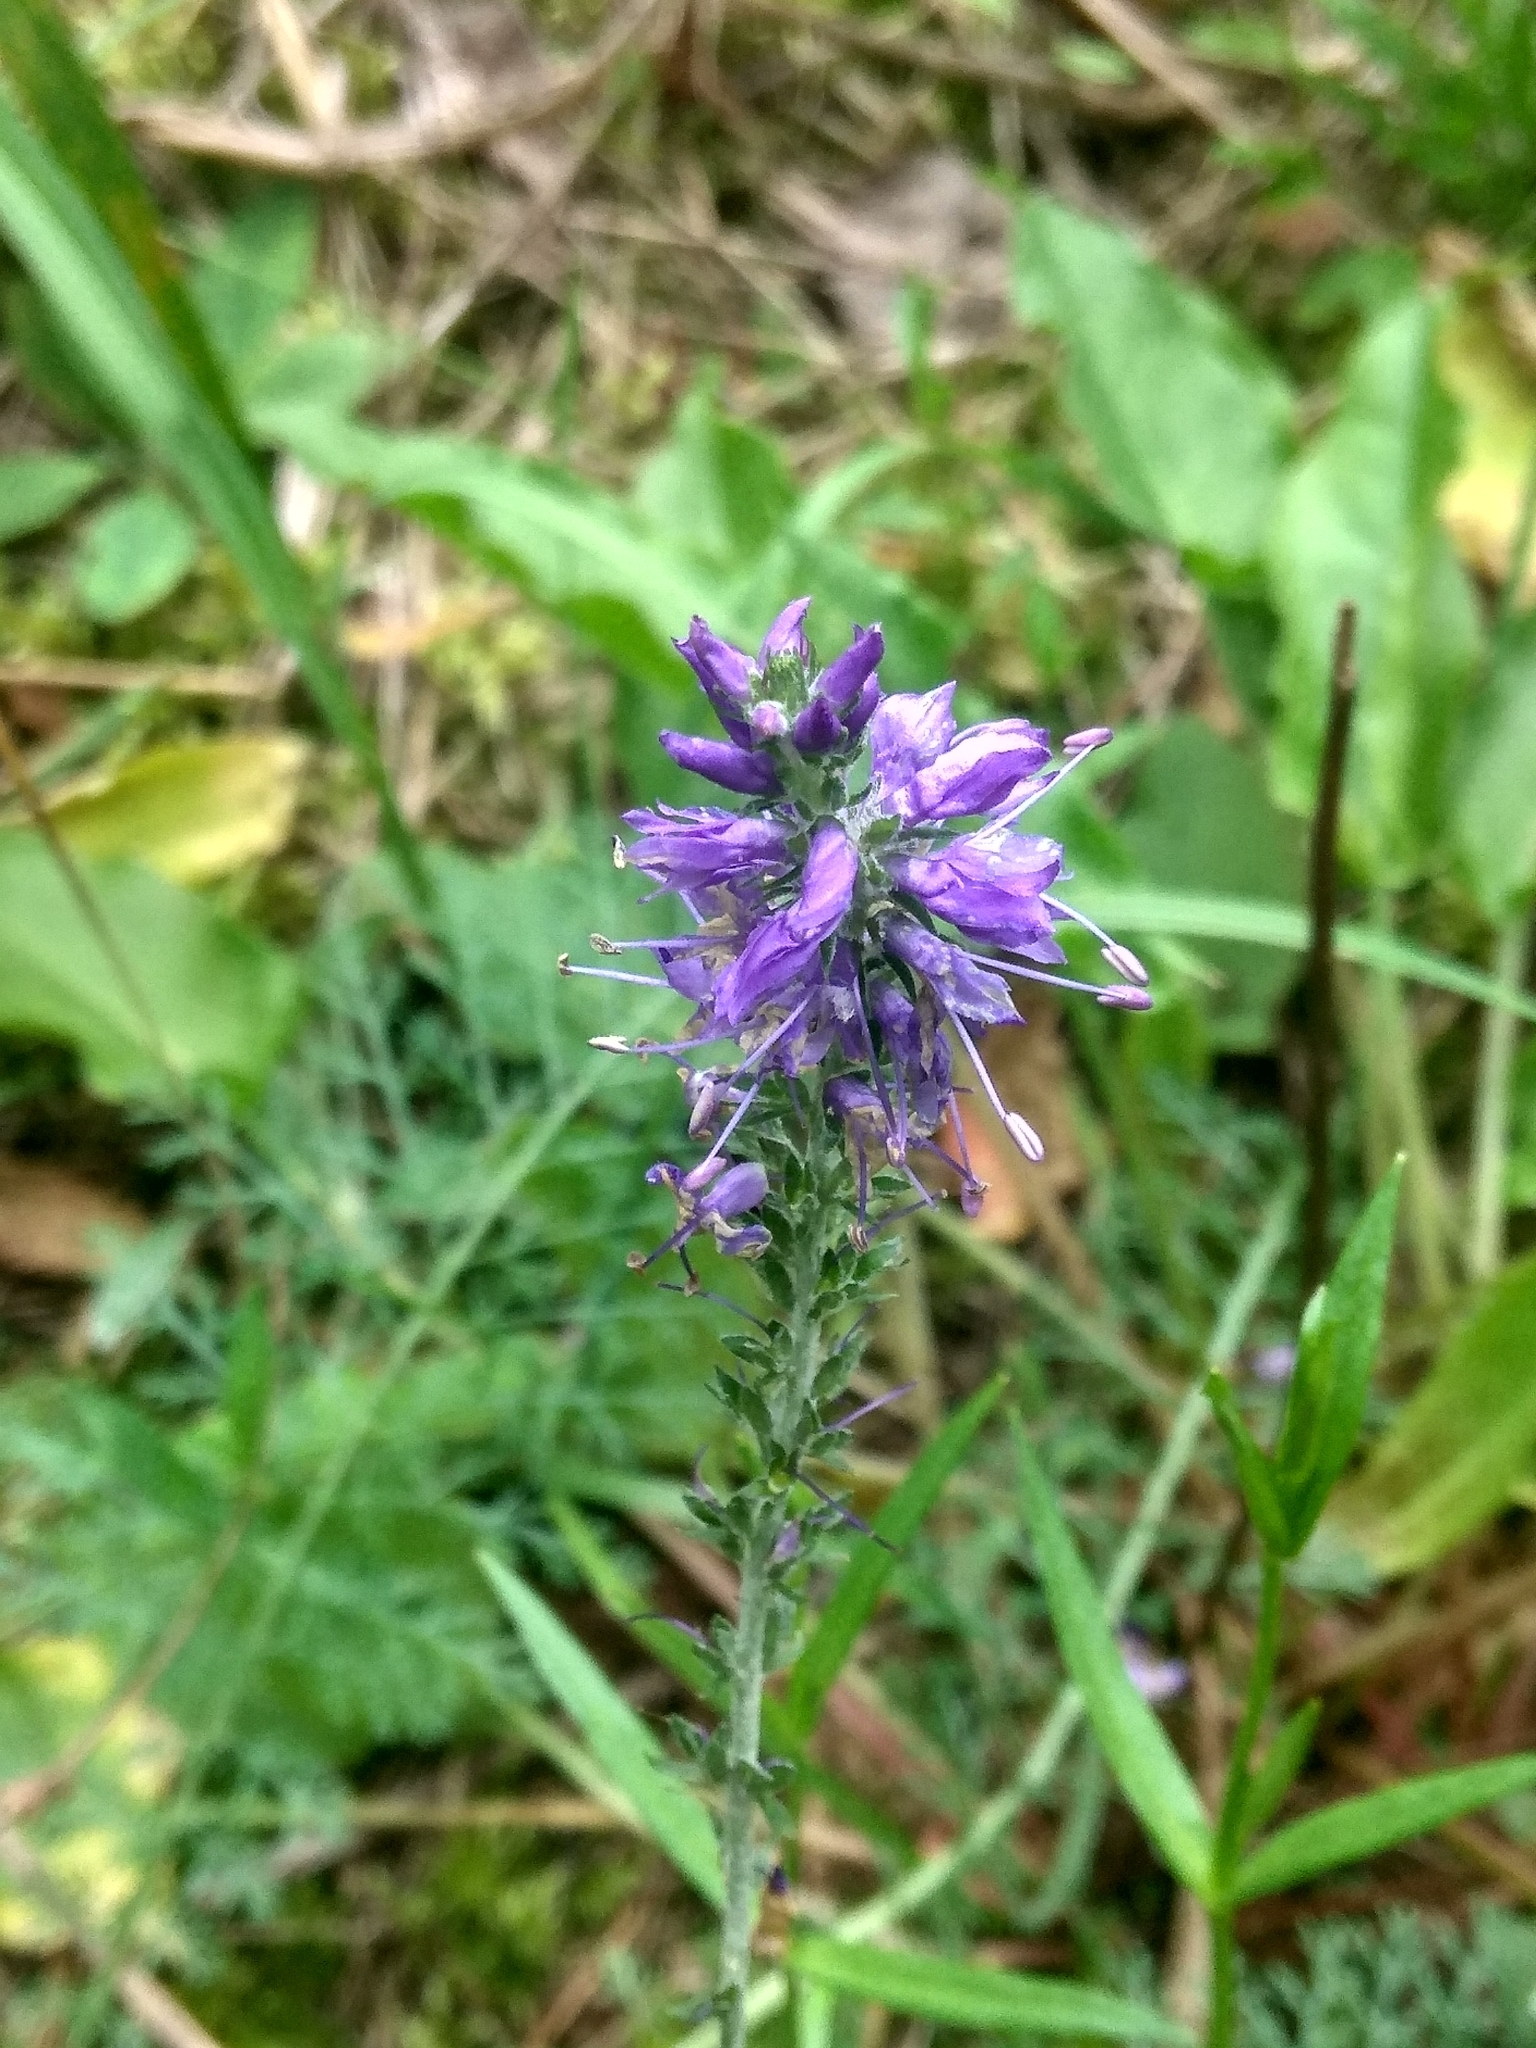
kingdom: Plantae
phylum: Tracheophyta
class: Magnoliopsida
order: Lamiales
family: Plantaginaceae
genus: Veronica
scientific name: Veronica incana
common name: Silver speedwell
